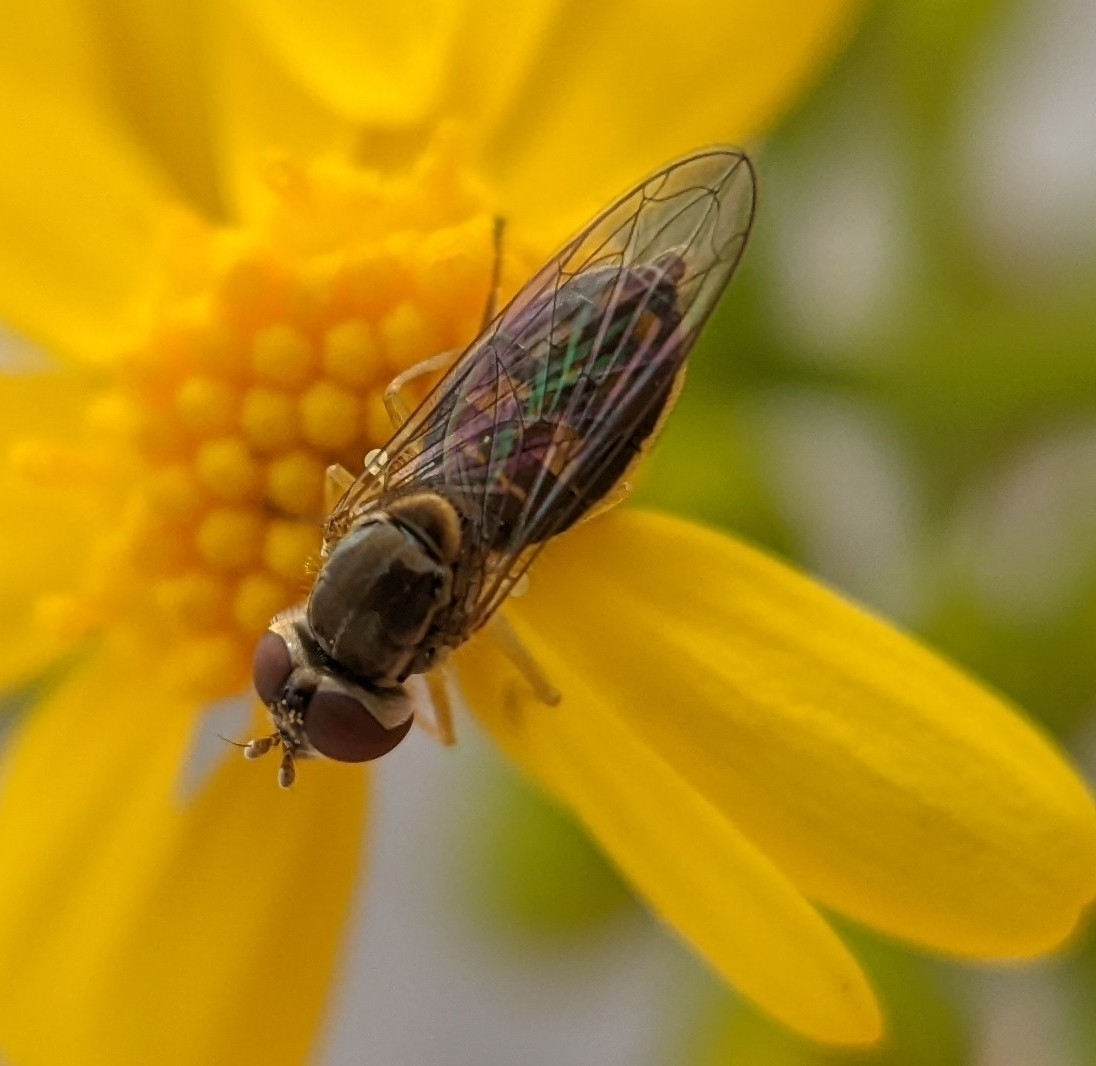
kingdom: Animalia
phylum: Arthropoda
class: Insecta
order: Diptera
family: Syrphidae
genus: Toxomerus
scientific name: Toxomerus marginatus
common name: Syrphid fly
